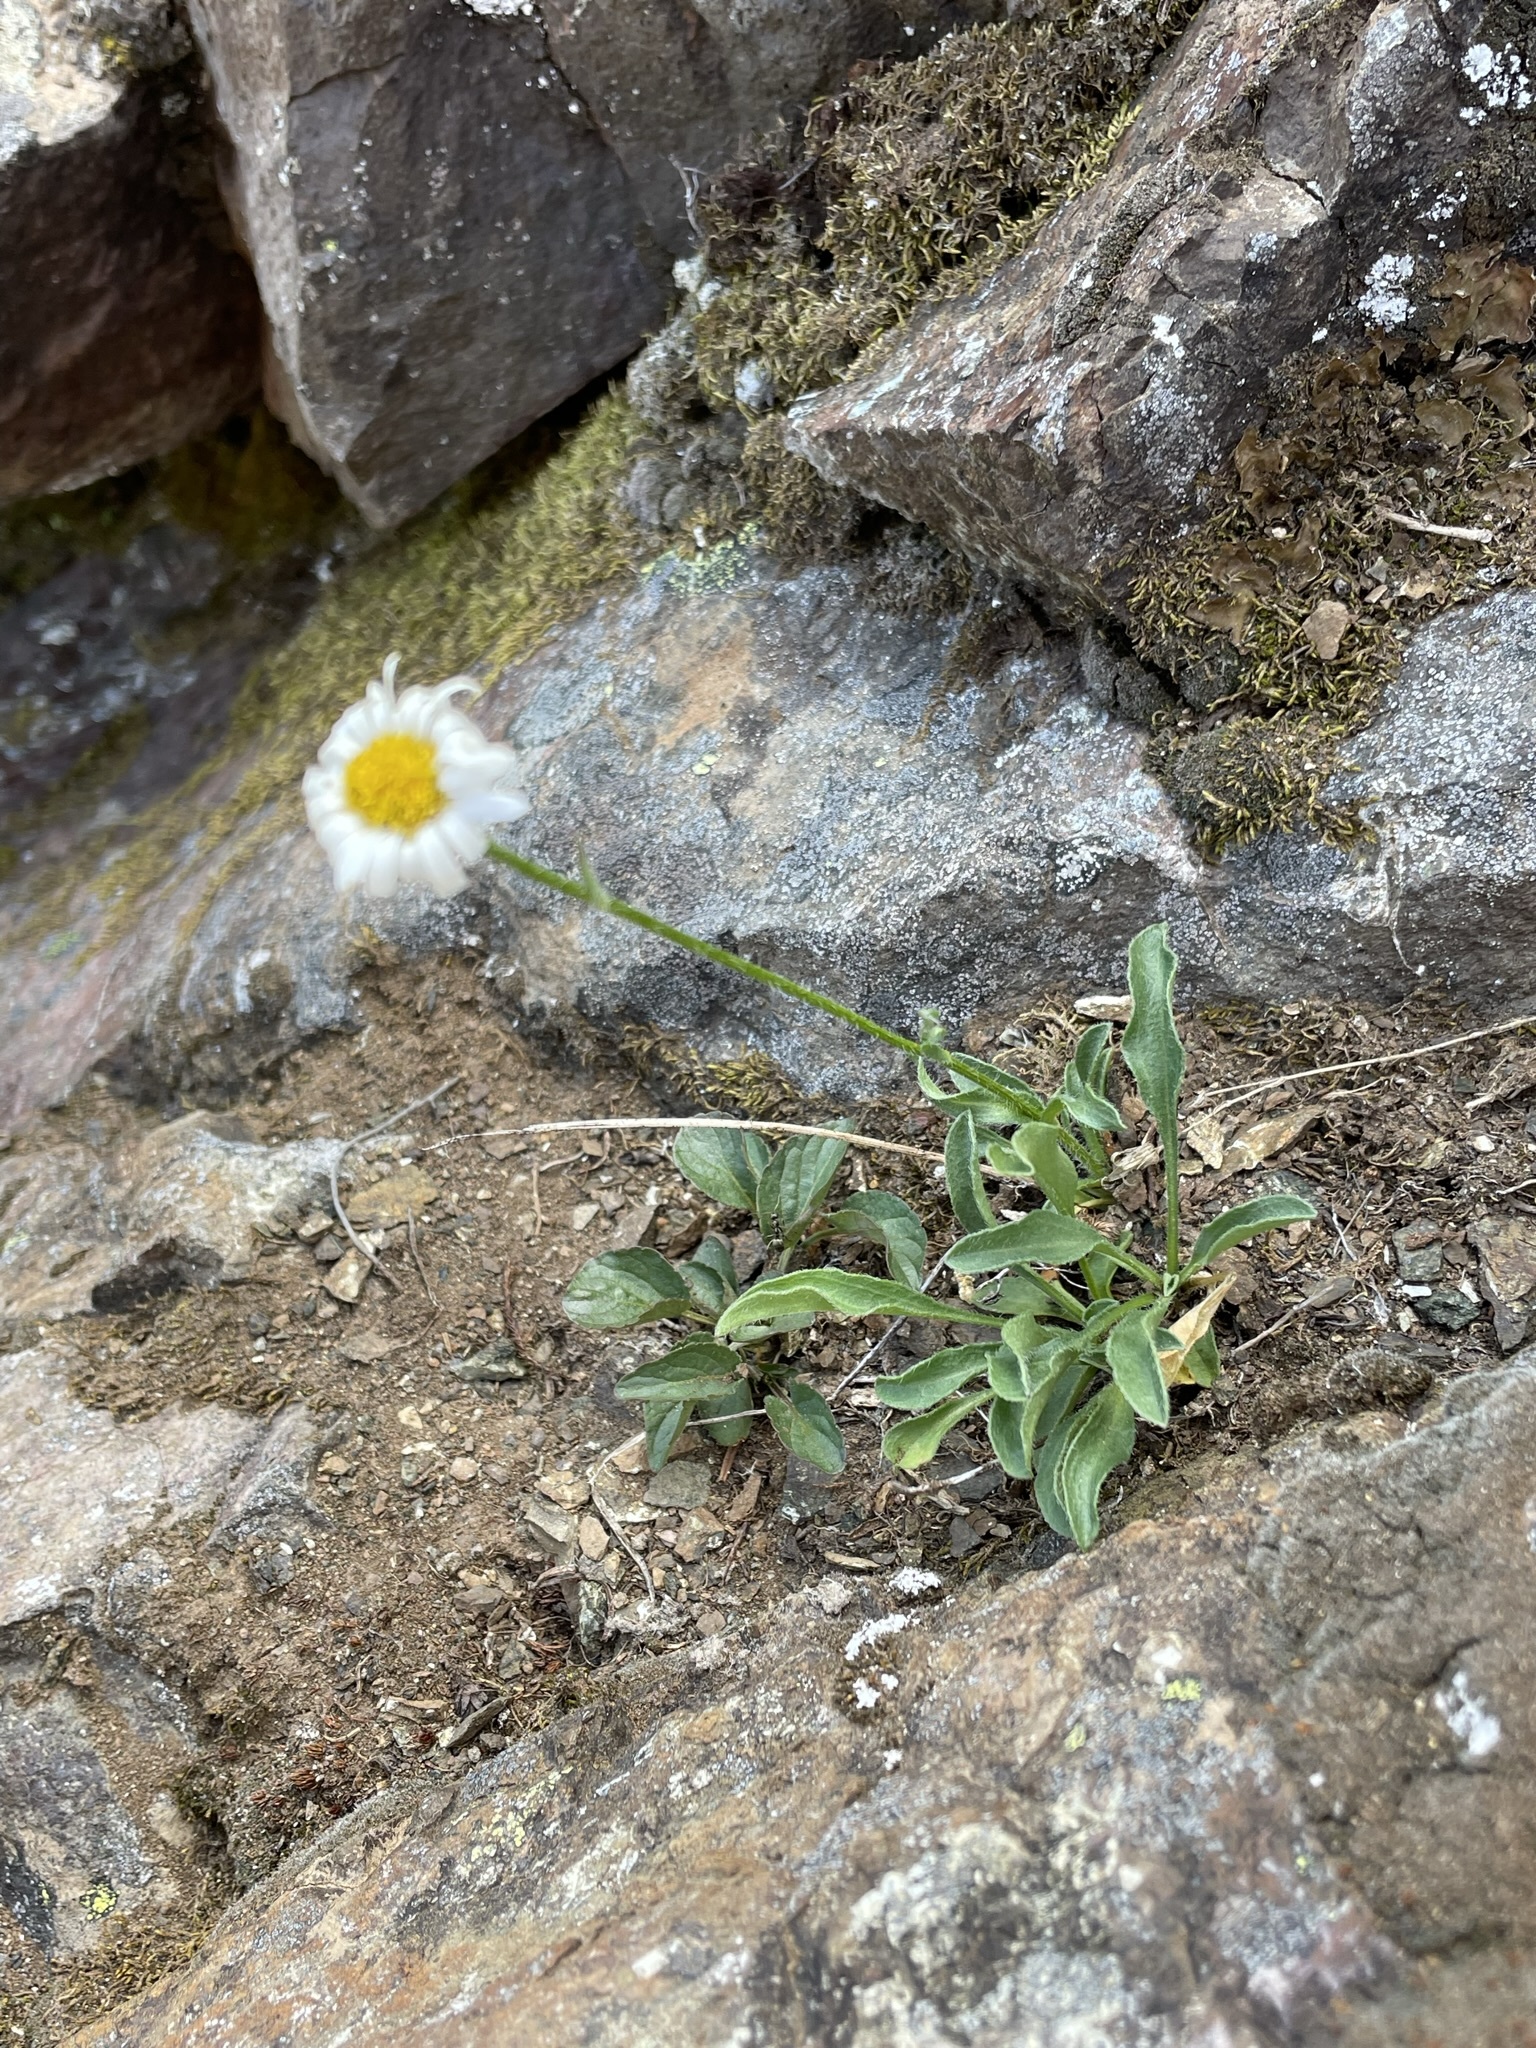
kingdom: Plantae
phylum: Tracheophyta
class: Magnoliopsida
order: Asterales
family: Asteraceae
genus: Erigeron
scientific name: Erigeron flettii
